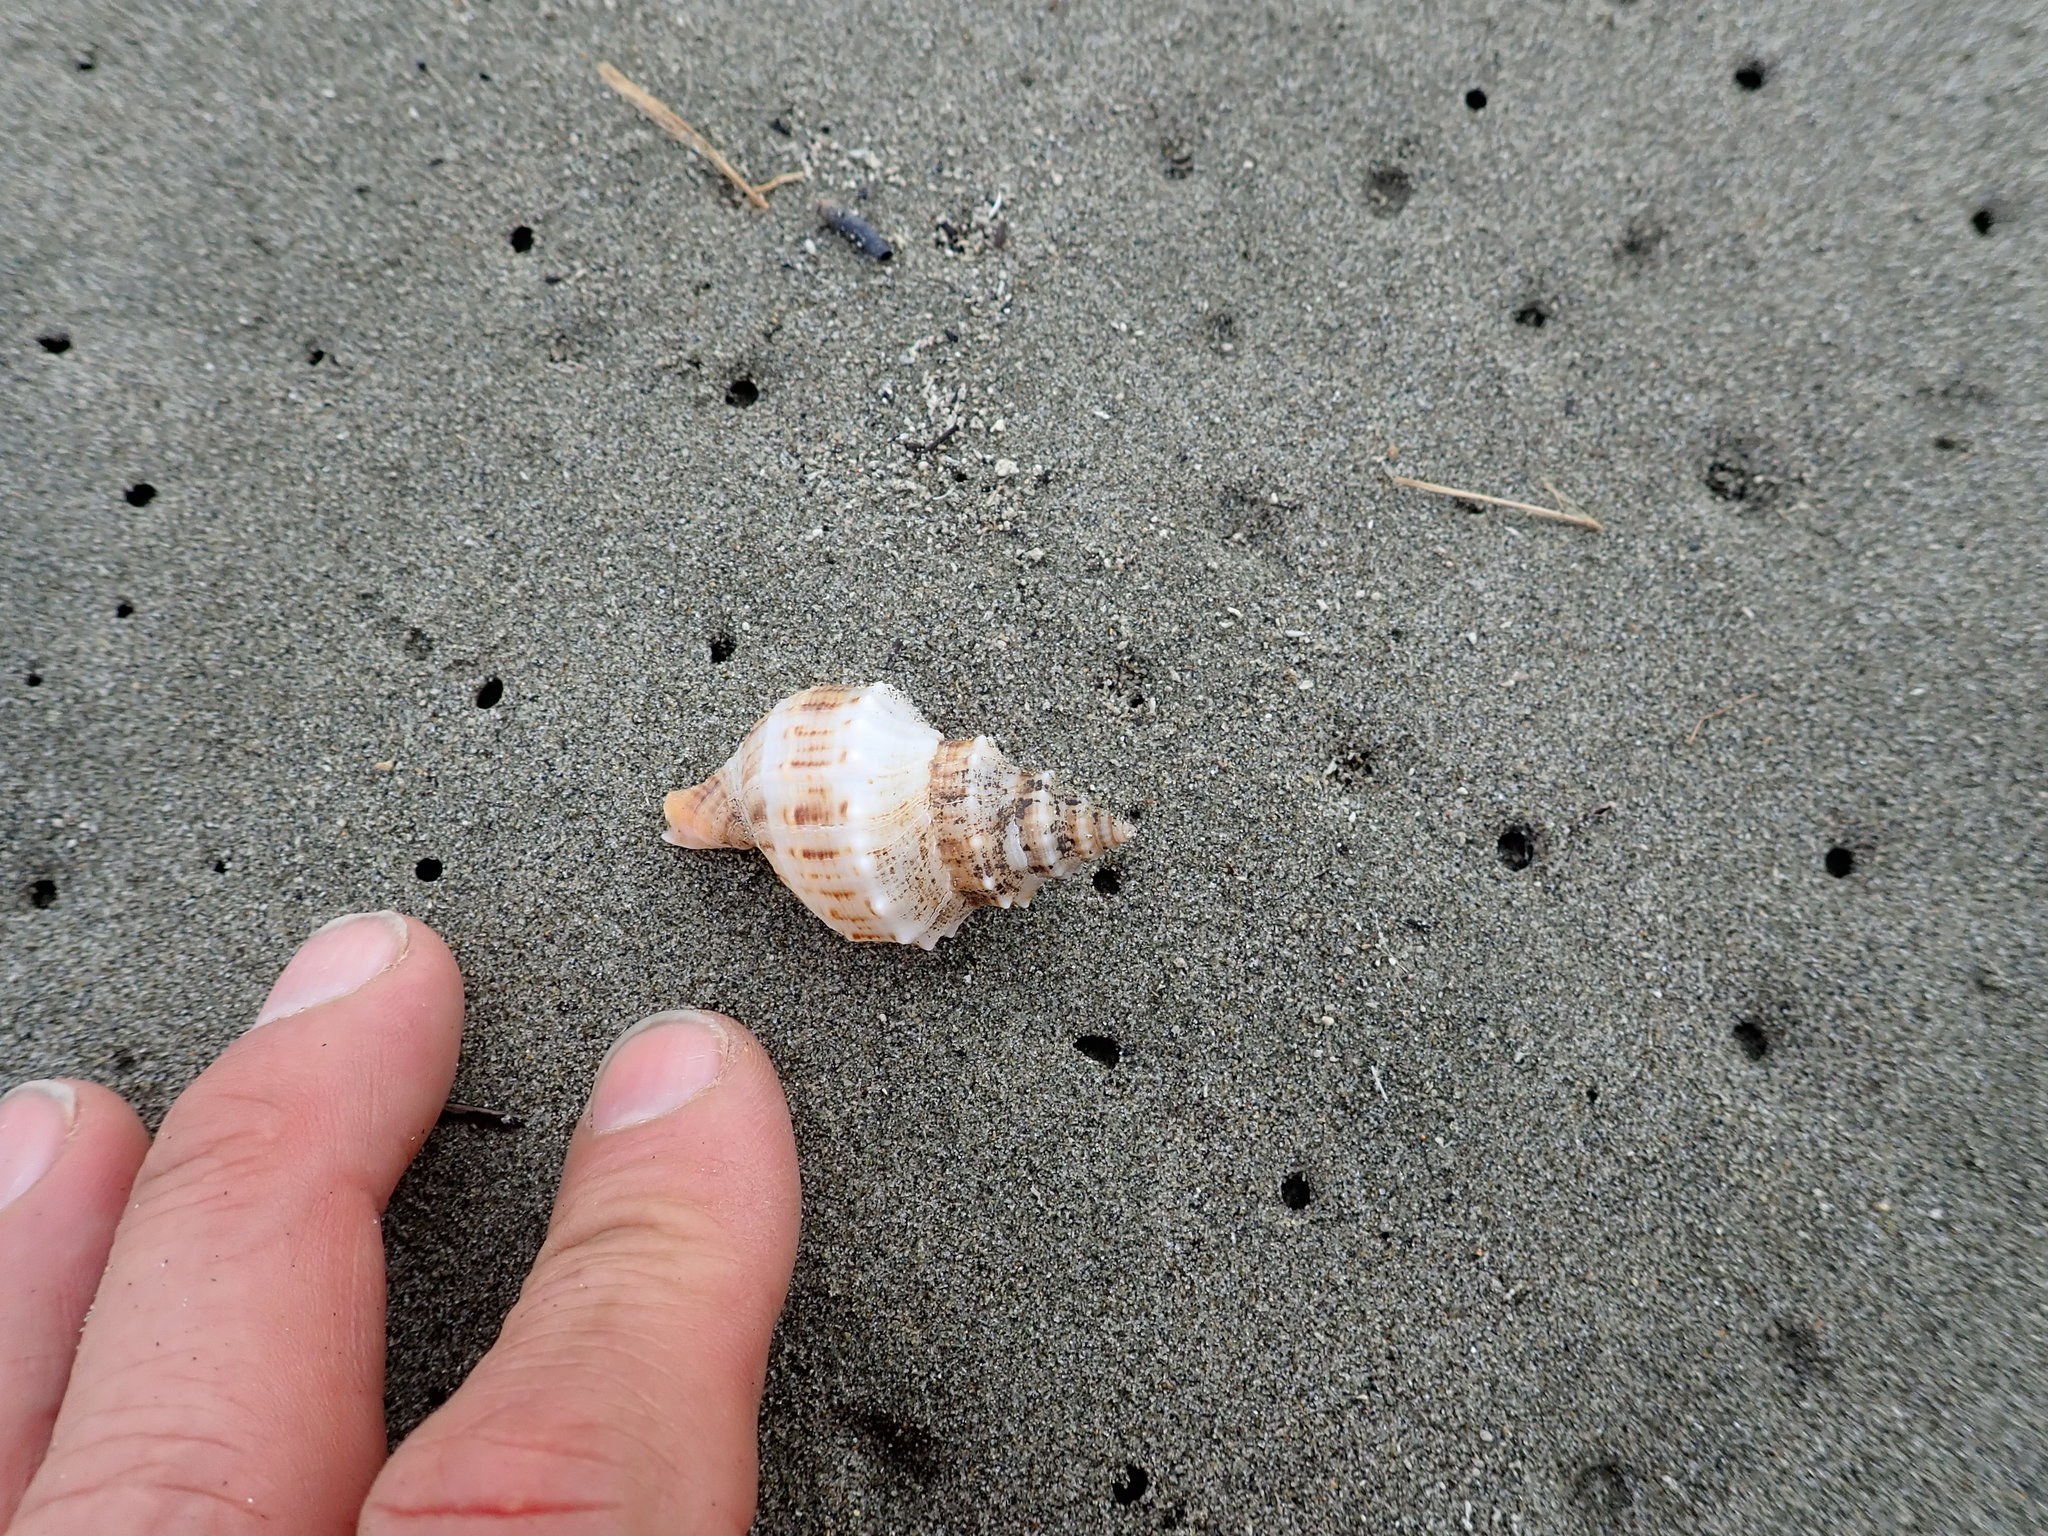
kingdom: Animalia
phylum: Mollusca
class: Gastropoda
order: Neogastropoda
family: Prosiphonidae
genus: Austrofusus
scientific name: Austrofusus glans
